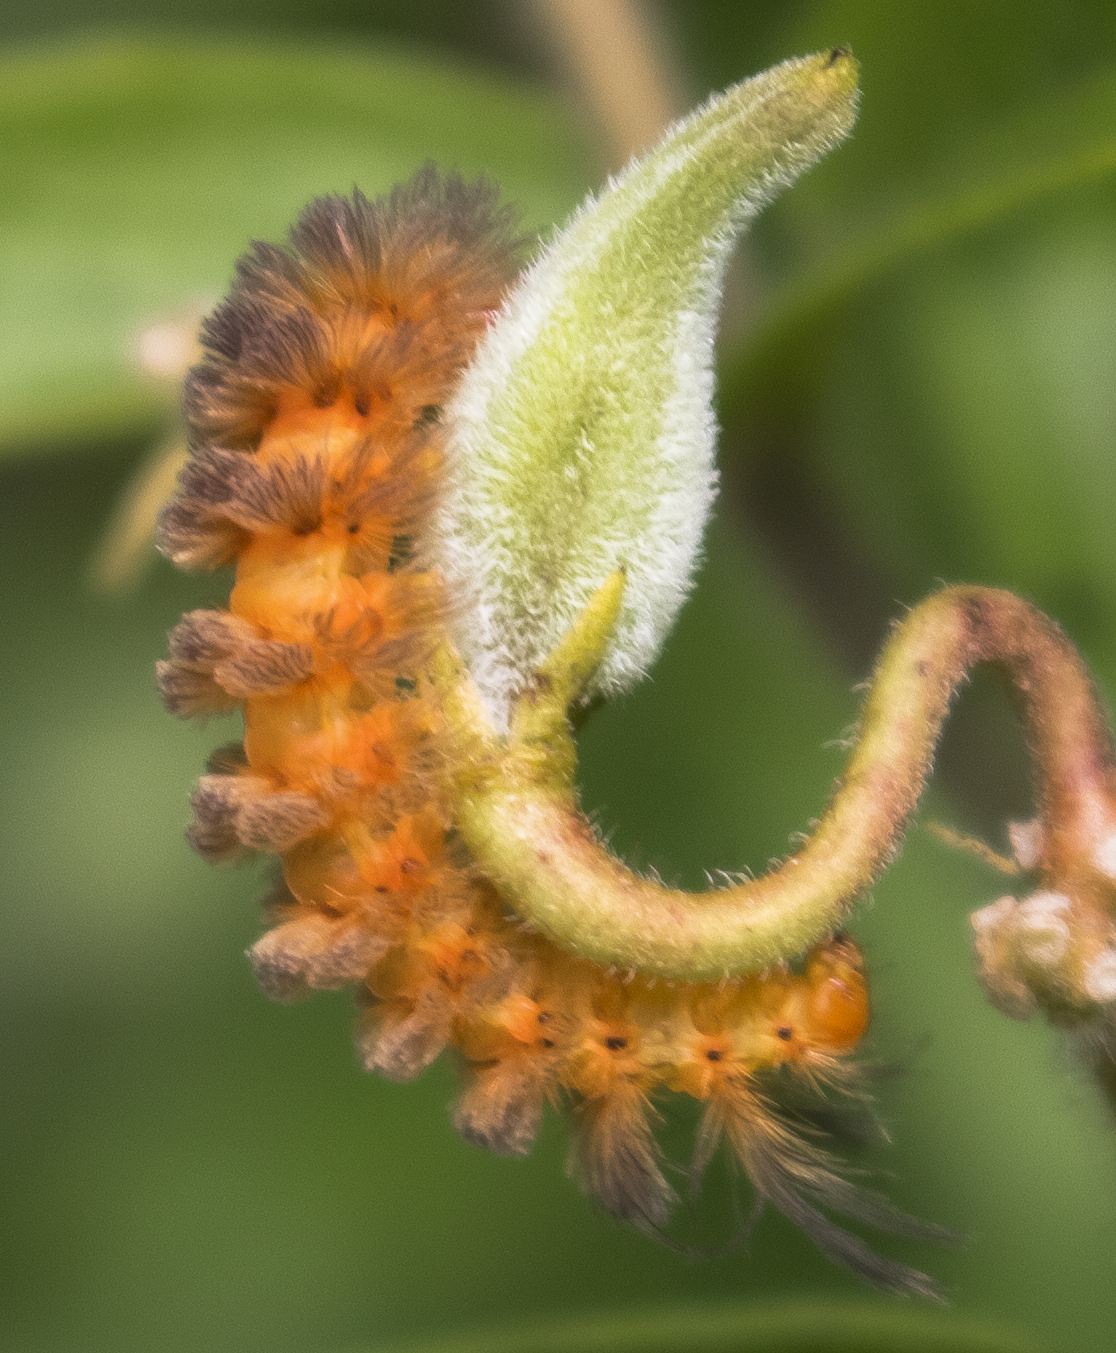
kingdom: Animalia
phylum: Arthropoda
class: Insecta
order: Lepidoptera
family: Erebidae
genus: Cycnia
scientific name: Cycnia collaris
